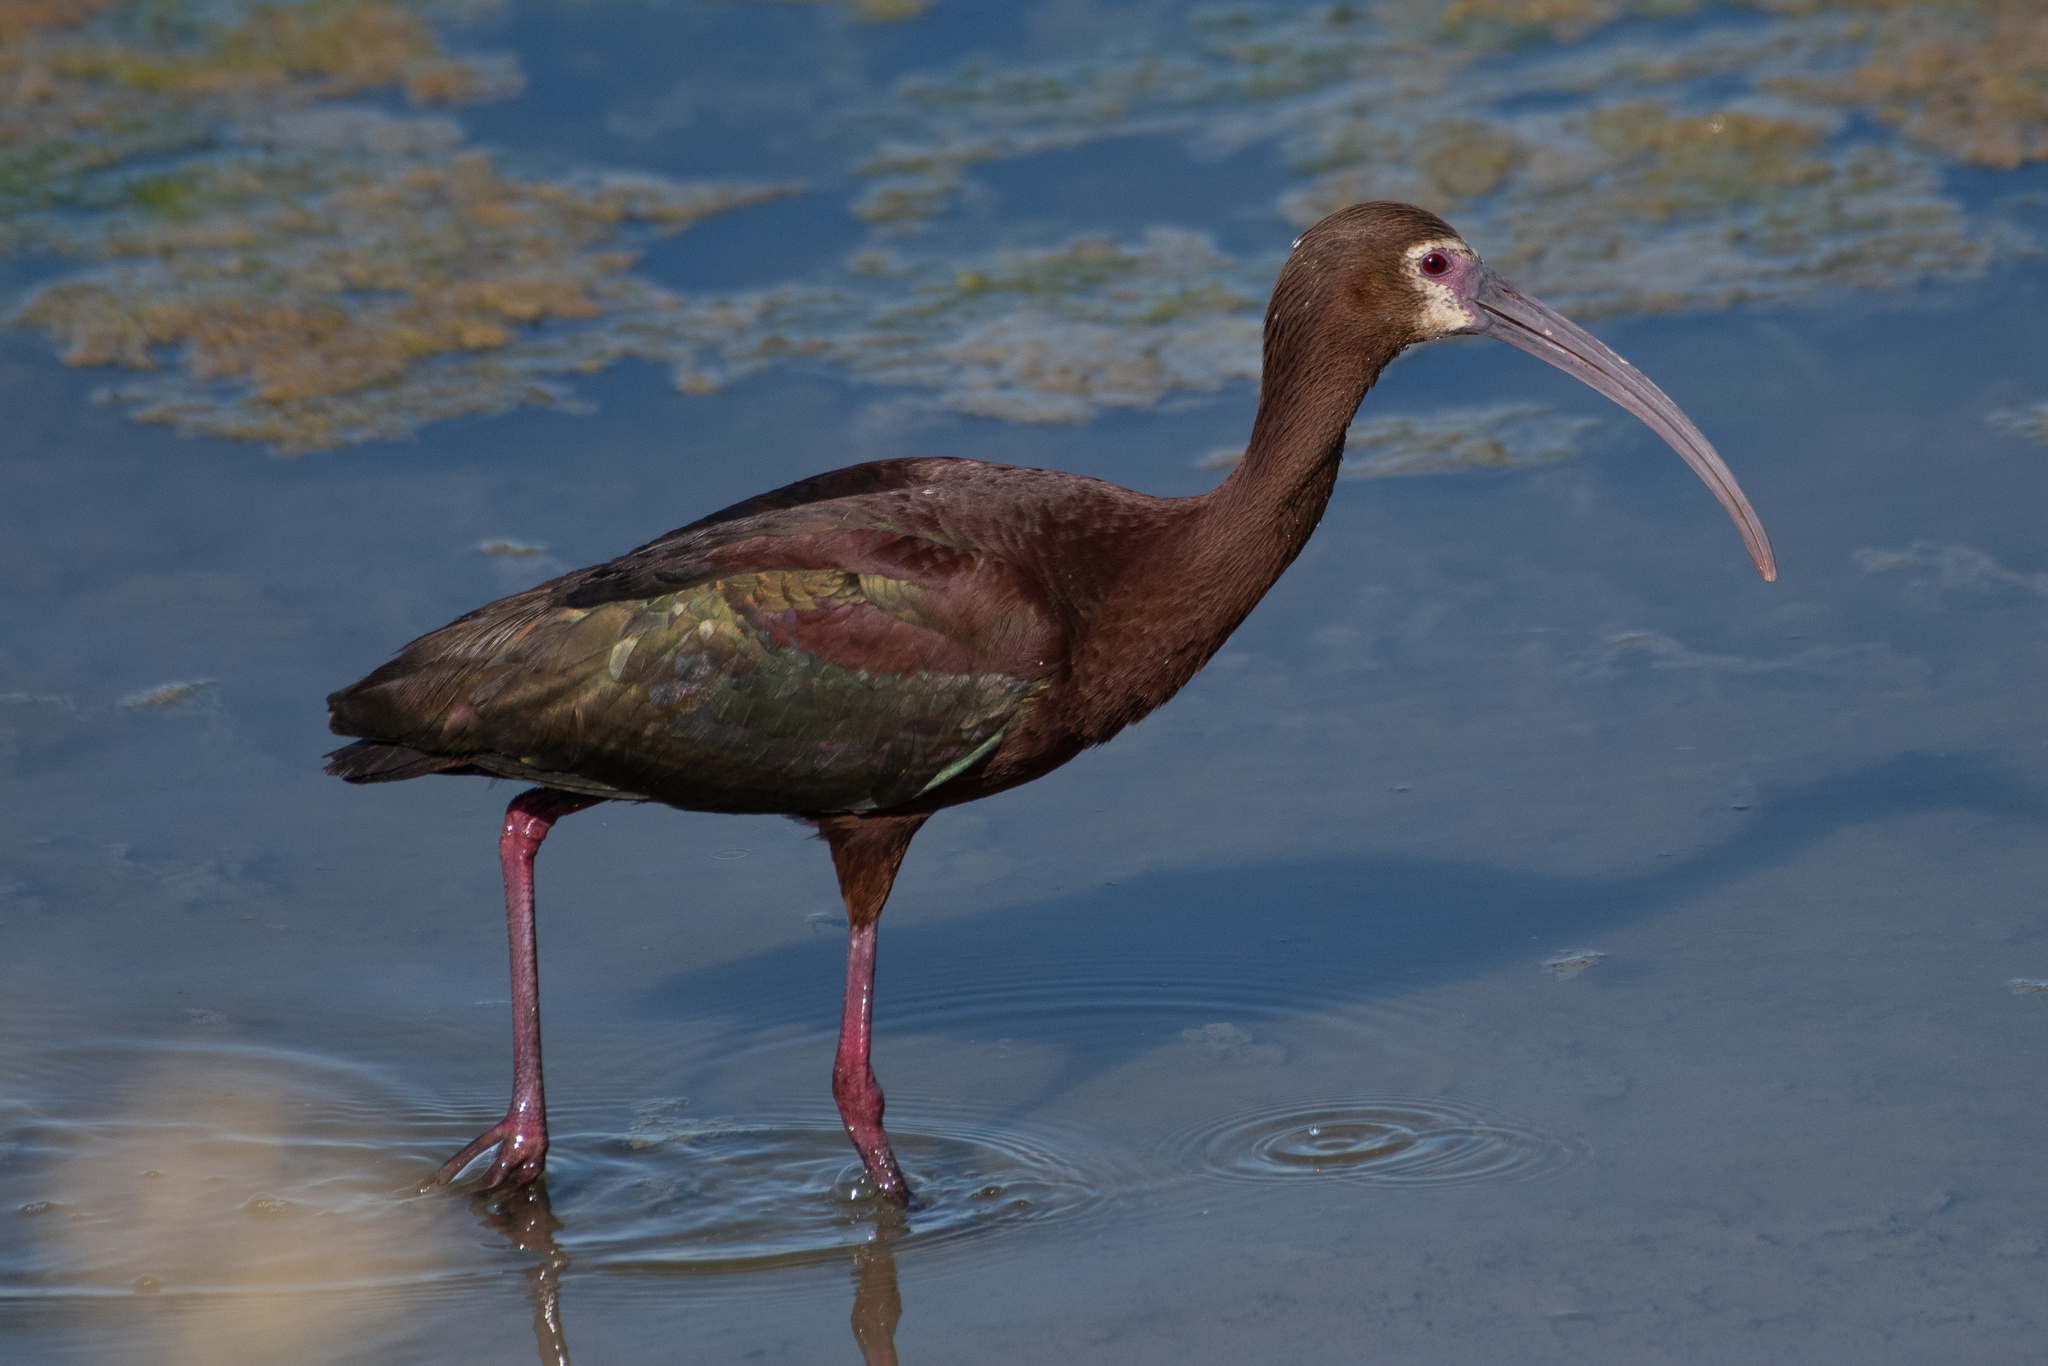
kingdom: Animalia
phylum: Chordata
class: Aves
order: Pelecaniformes
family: Threskiornithidae
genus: Plegadis
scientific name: Plegadis chihi
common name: White-faced ibis
